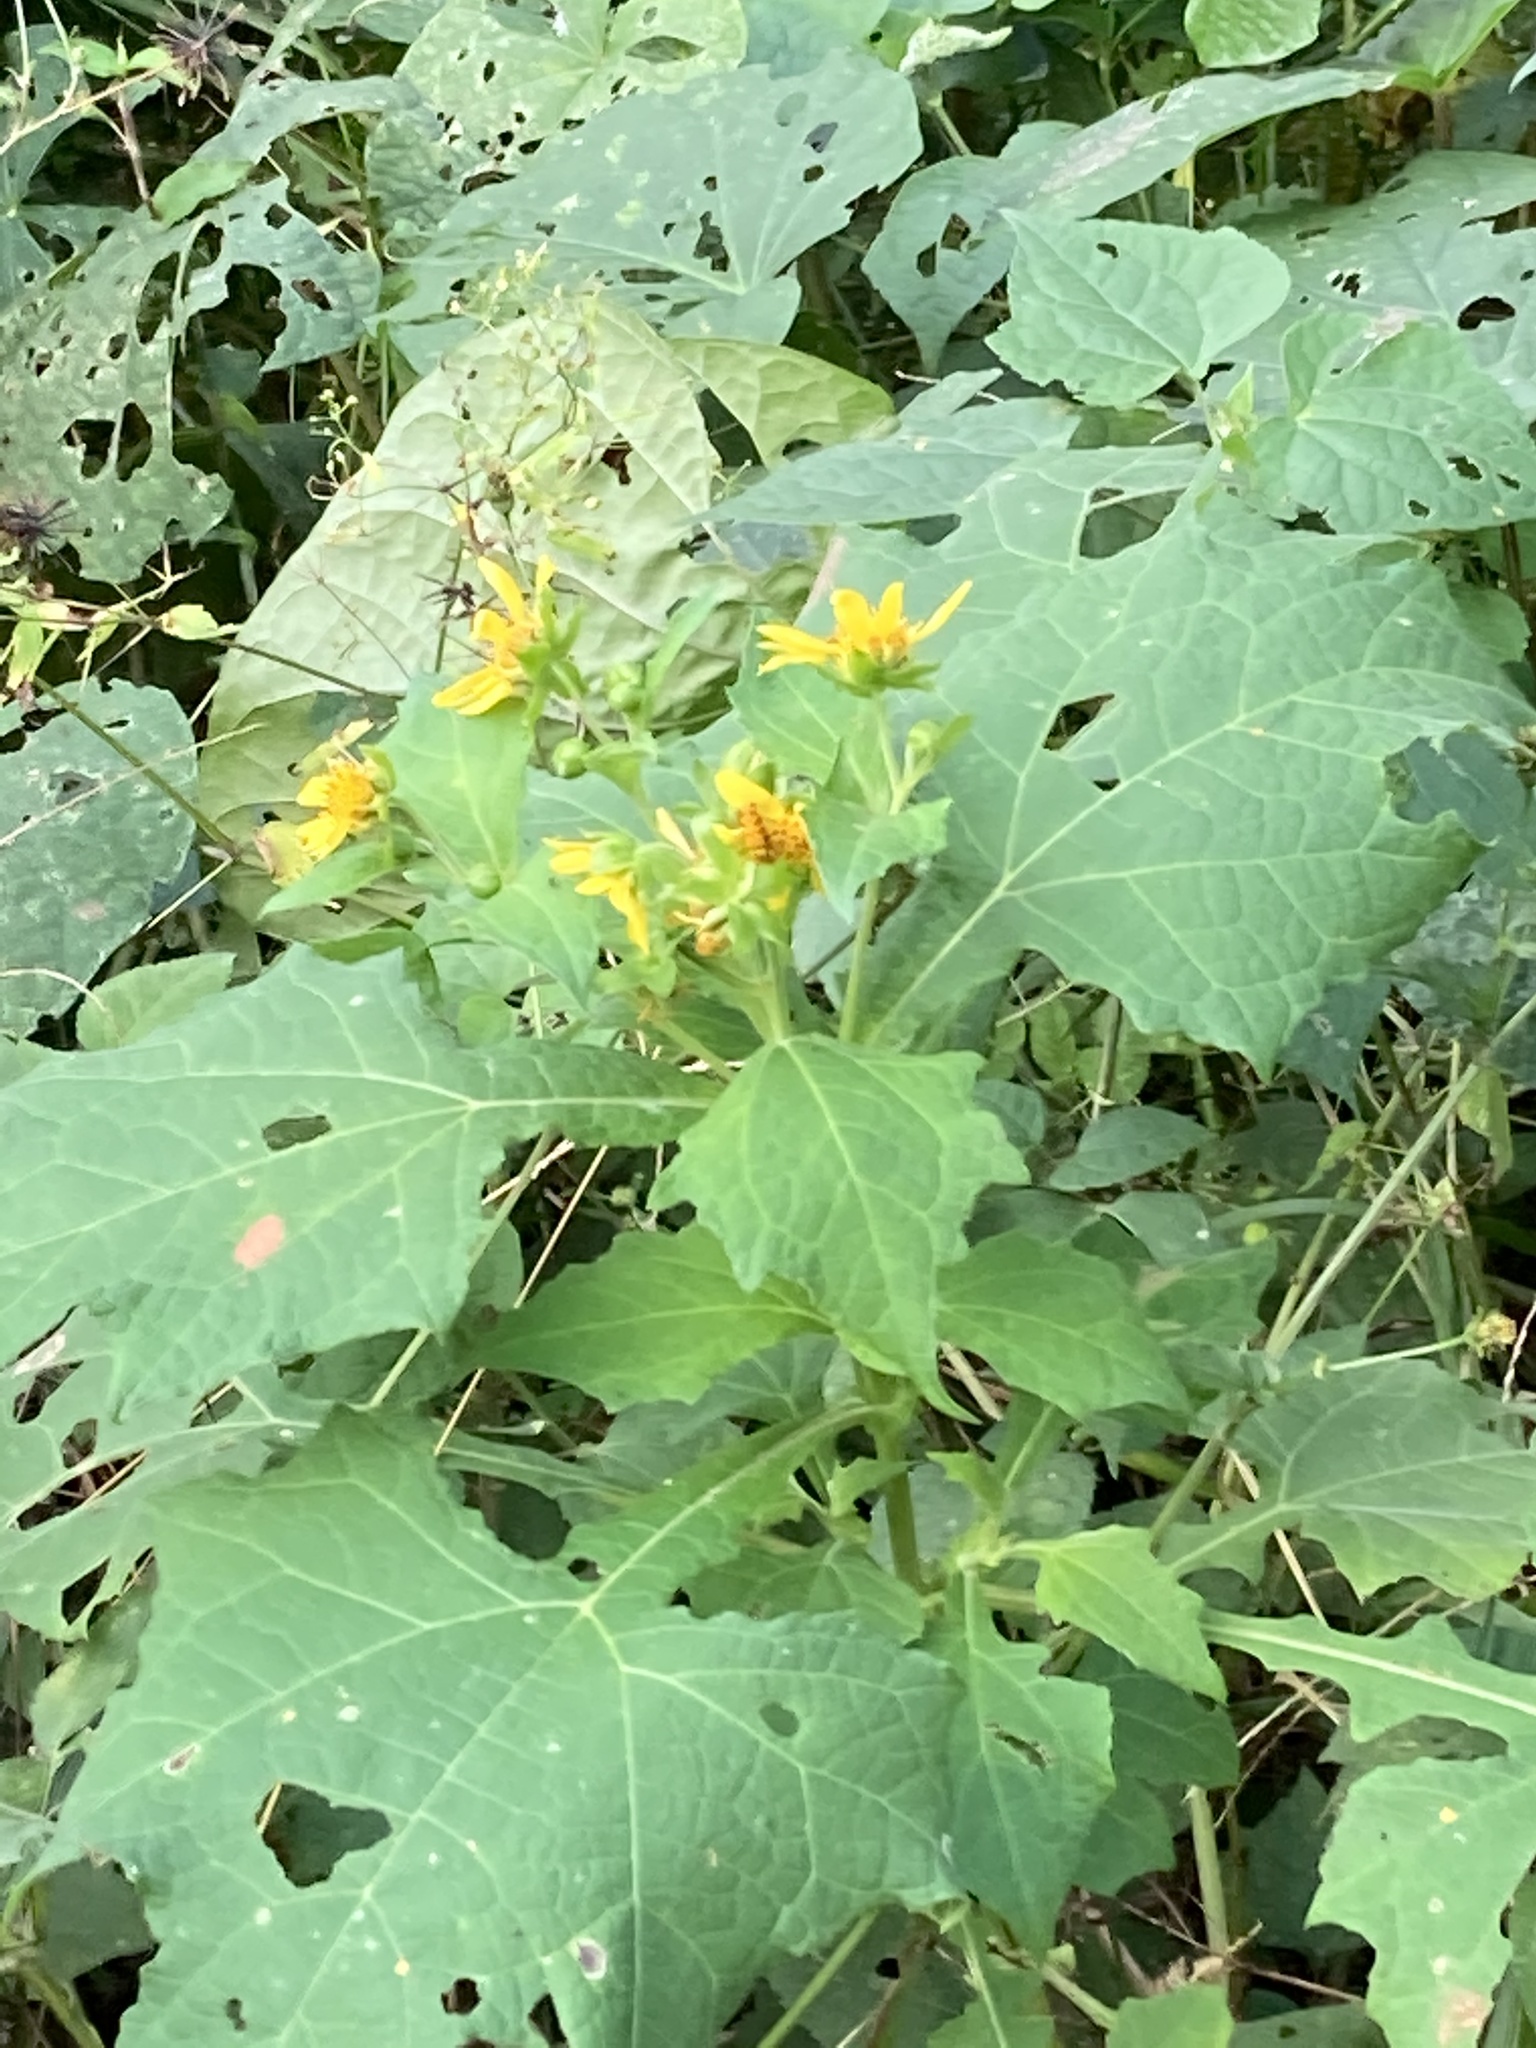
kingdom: Plantae
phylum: Tracheophyta
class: Magnoliopsida
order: Asterales
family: Asteraceae
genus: Smallanthus
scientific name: Smallanthus maculatus
